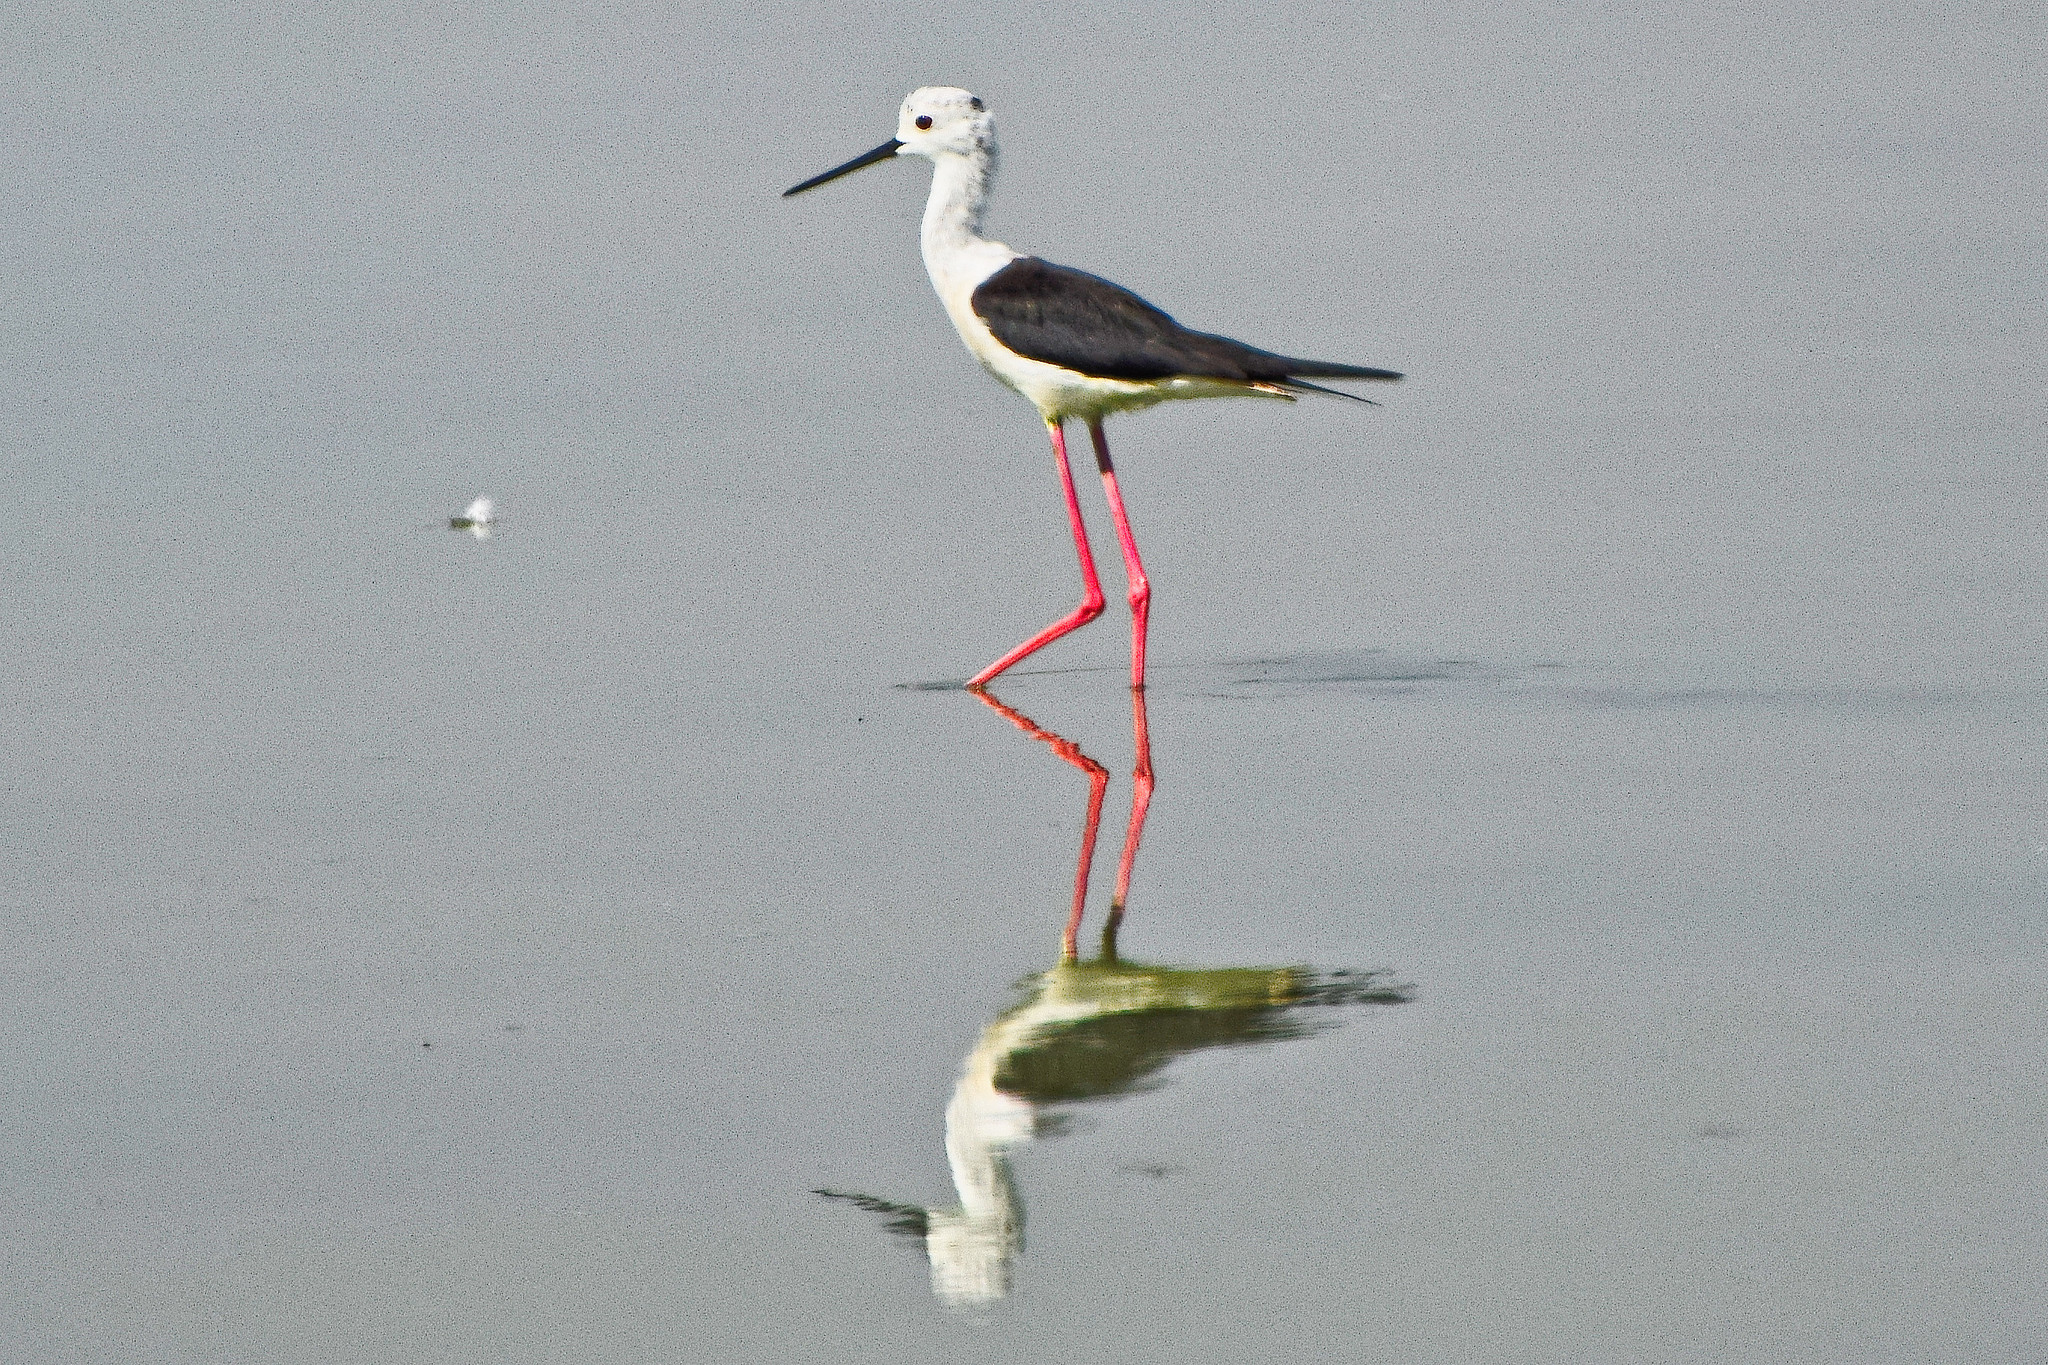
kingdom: Animalia
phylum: Chordata
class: Aves
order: Charadriiformes
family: Recurvirostridae
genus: Himantopus
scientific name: Himantopus himantopus
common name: Black-winged stilt
